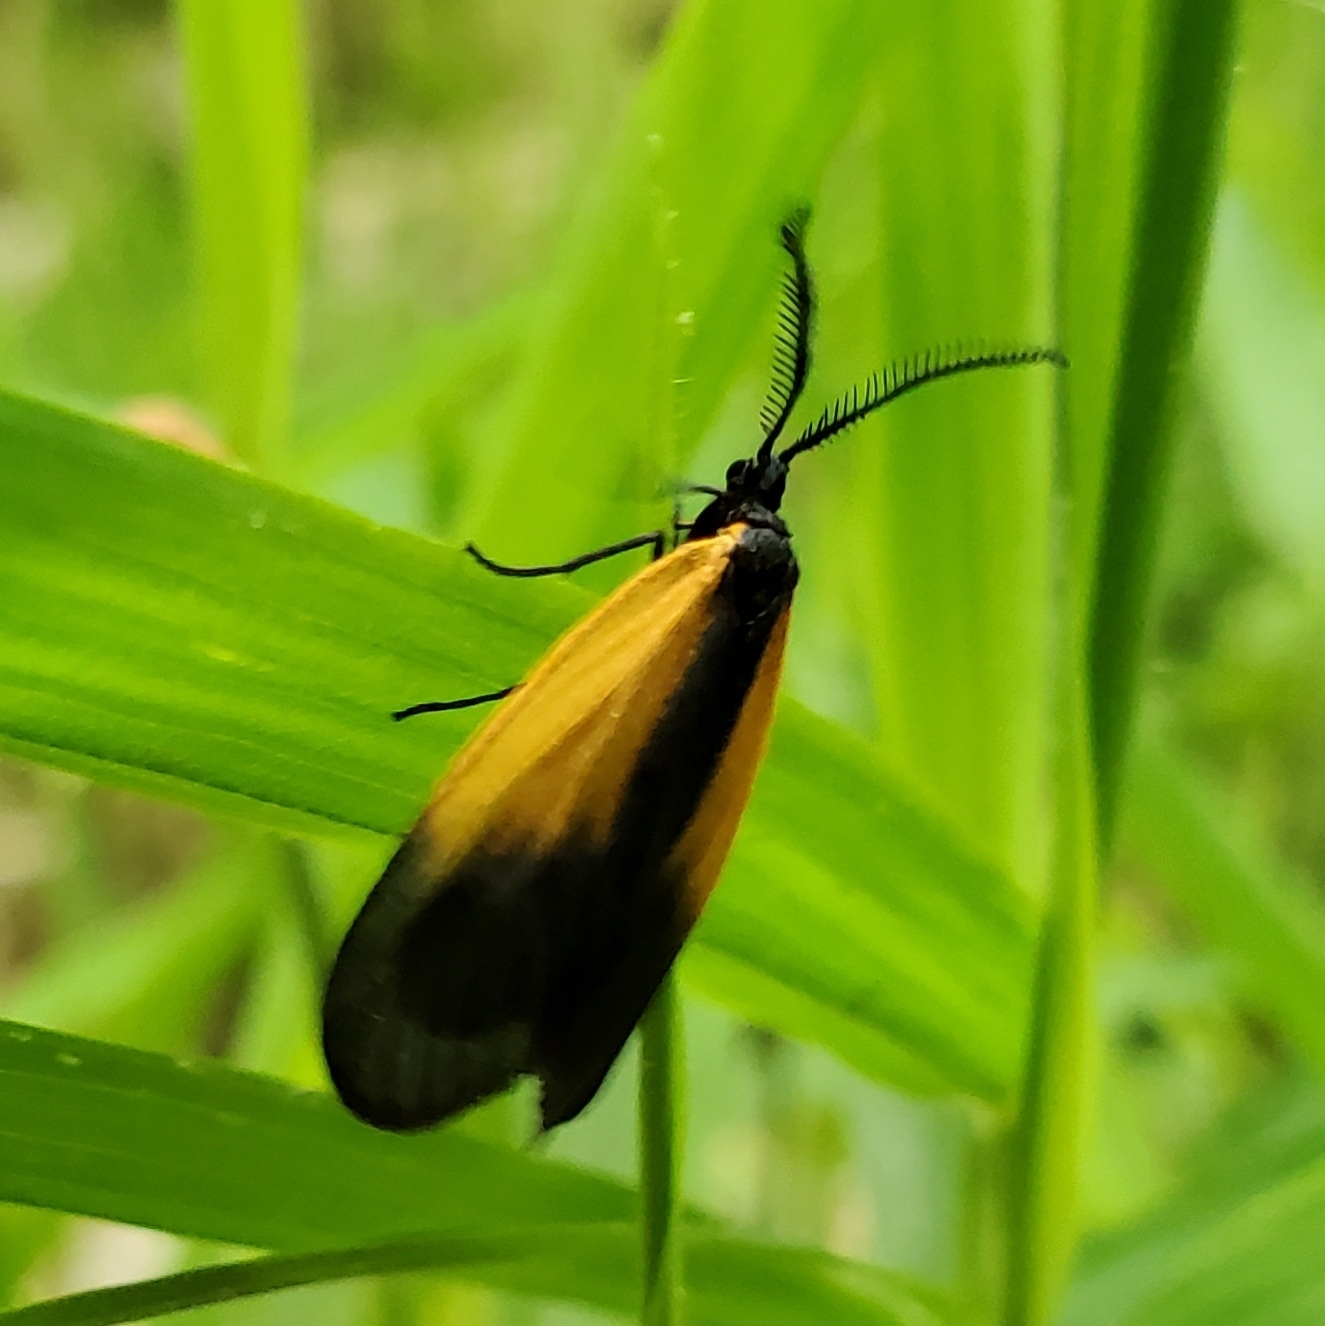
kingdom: Animalia
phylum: Arthropoda
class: Insecta
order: Lepidoptera
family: Zygaenidae
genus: Malthaca
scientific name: Malthaca dimidiata
